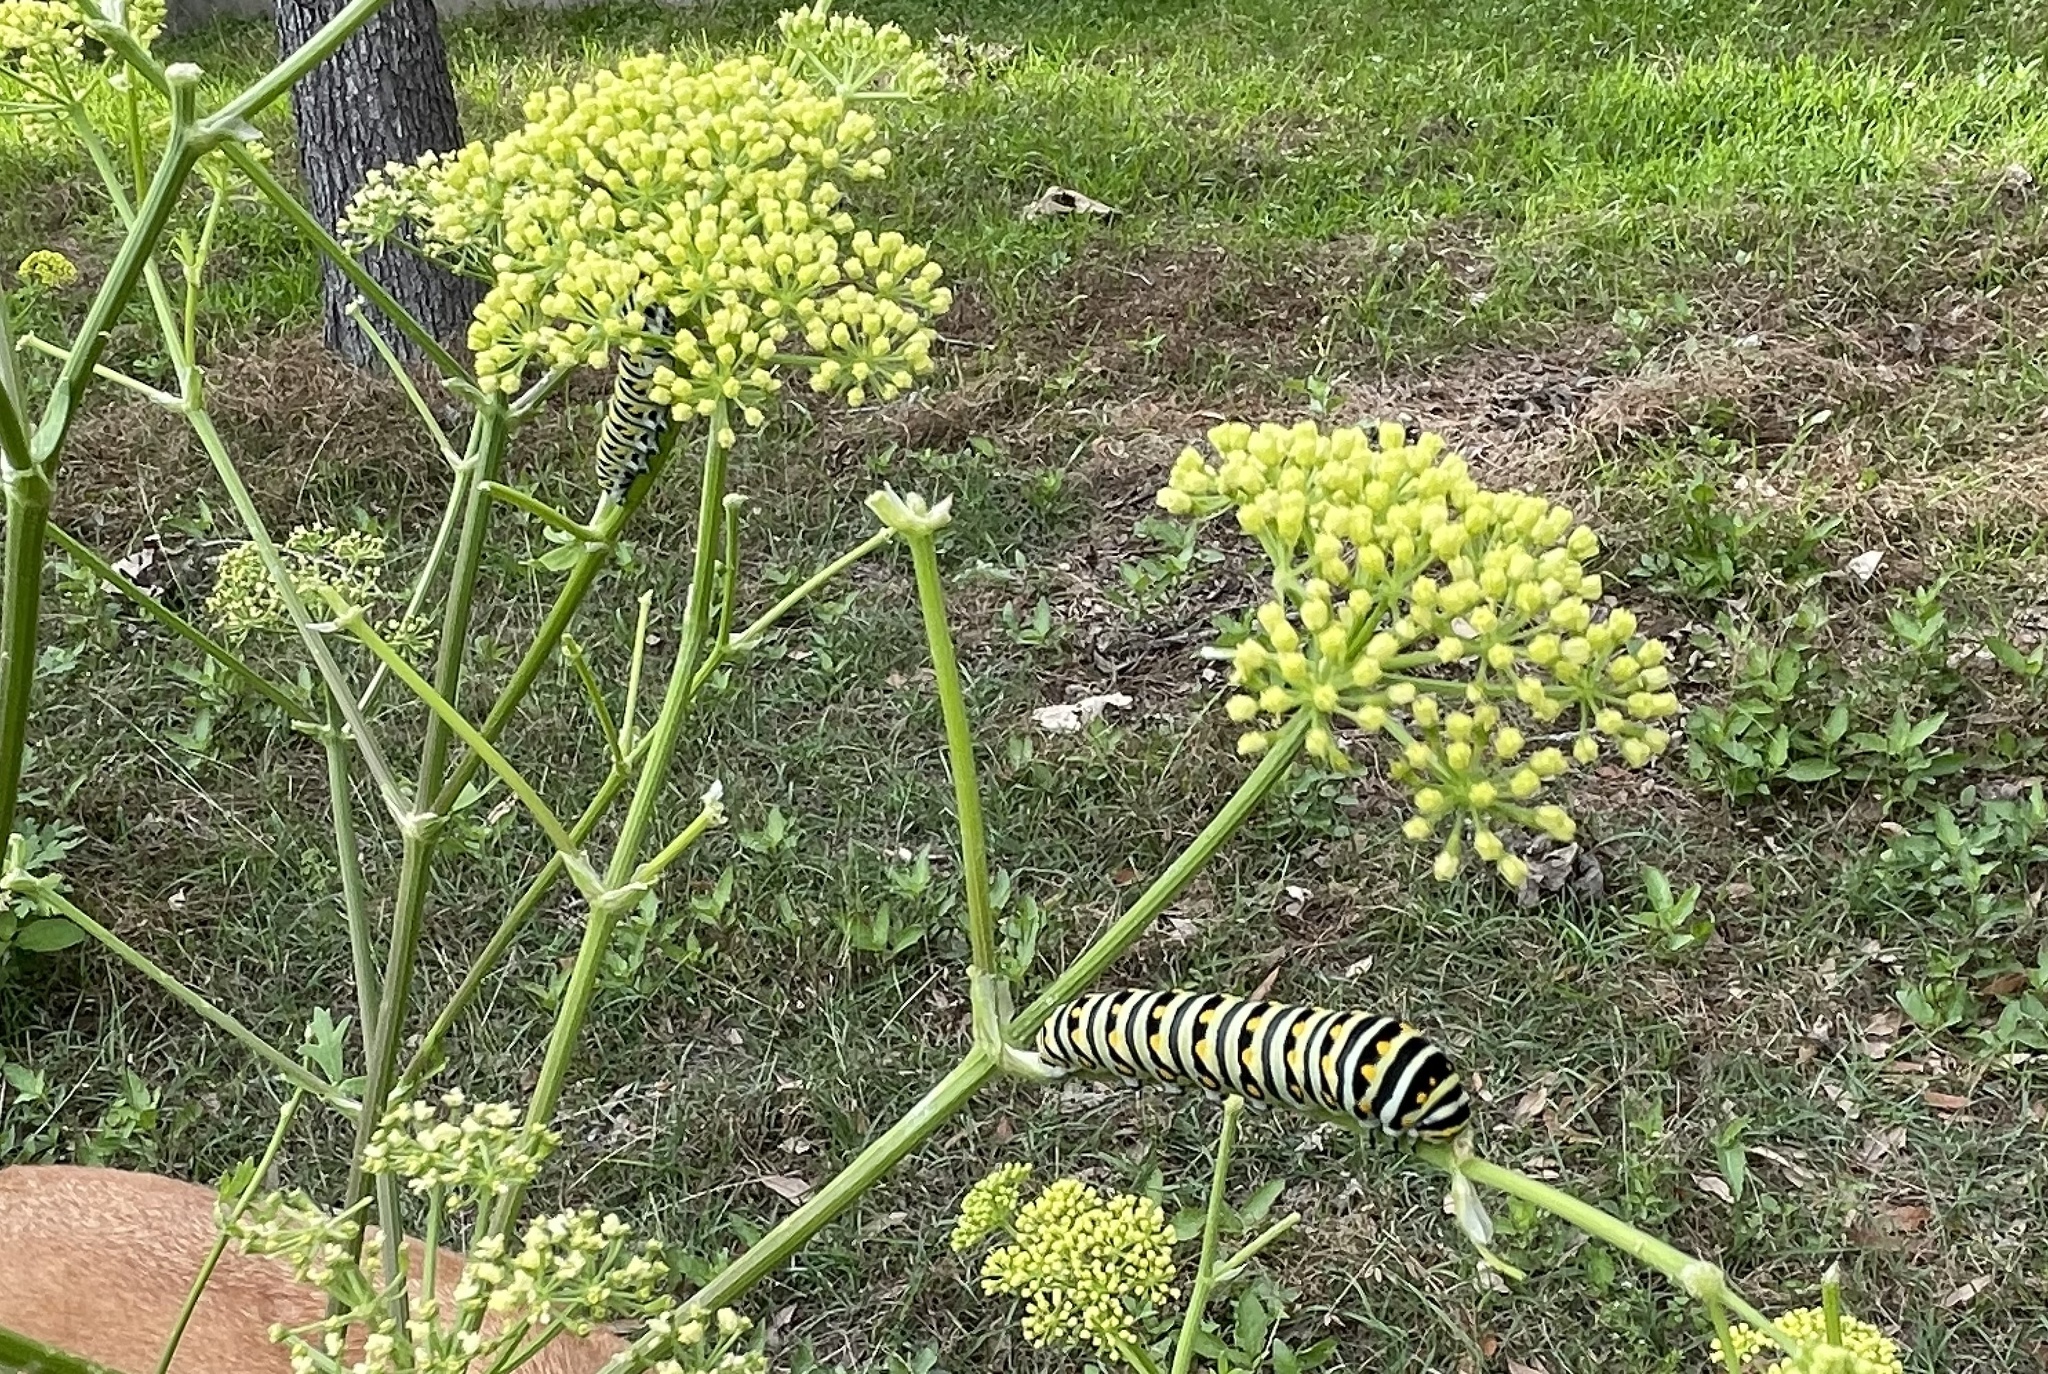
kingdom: Animalia
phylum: Arthropoda
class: Insecta
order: Lepidoptera
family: Papilionidae
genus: Papilio
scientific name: Papilio polyxenes
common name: Black swallowtail
